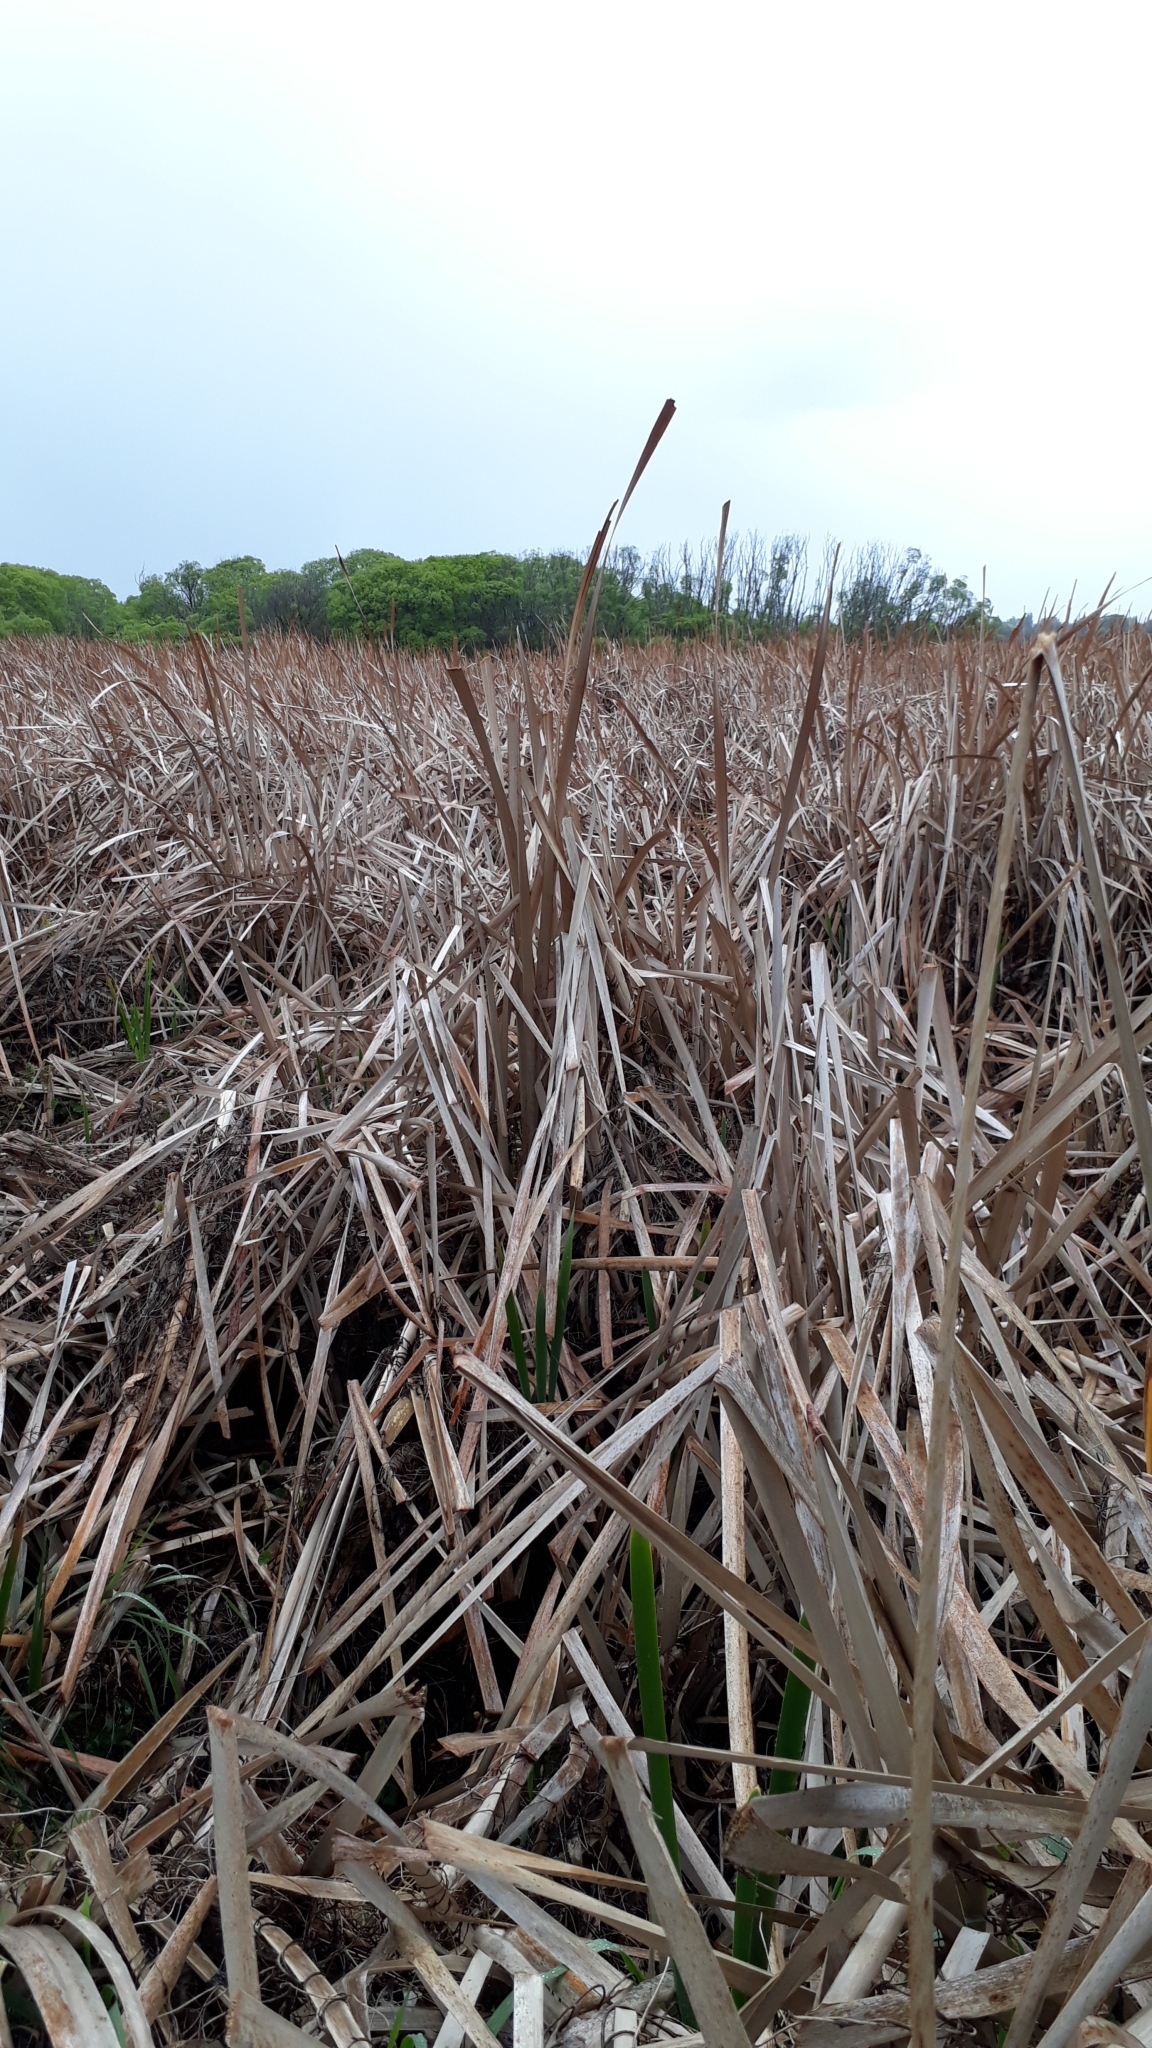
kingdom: Plantae
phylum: Tracheophyta
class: Liliopsida
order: Poales
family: Typhaceae
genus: Typha
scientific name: Typha orientalis
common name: Bullrush
